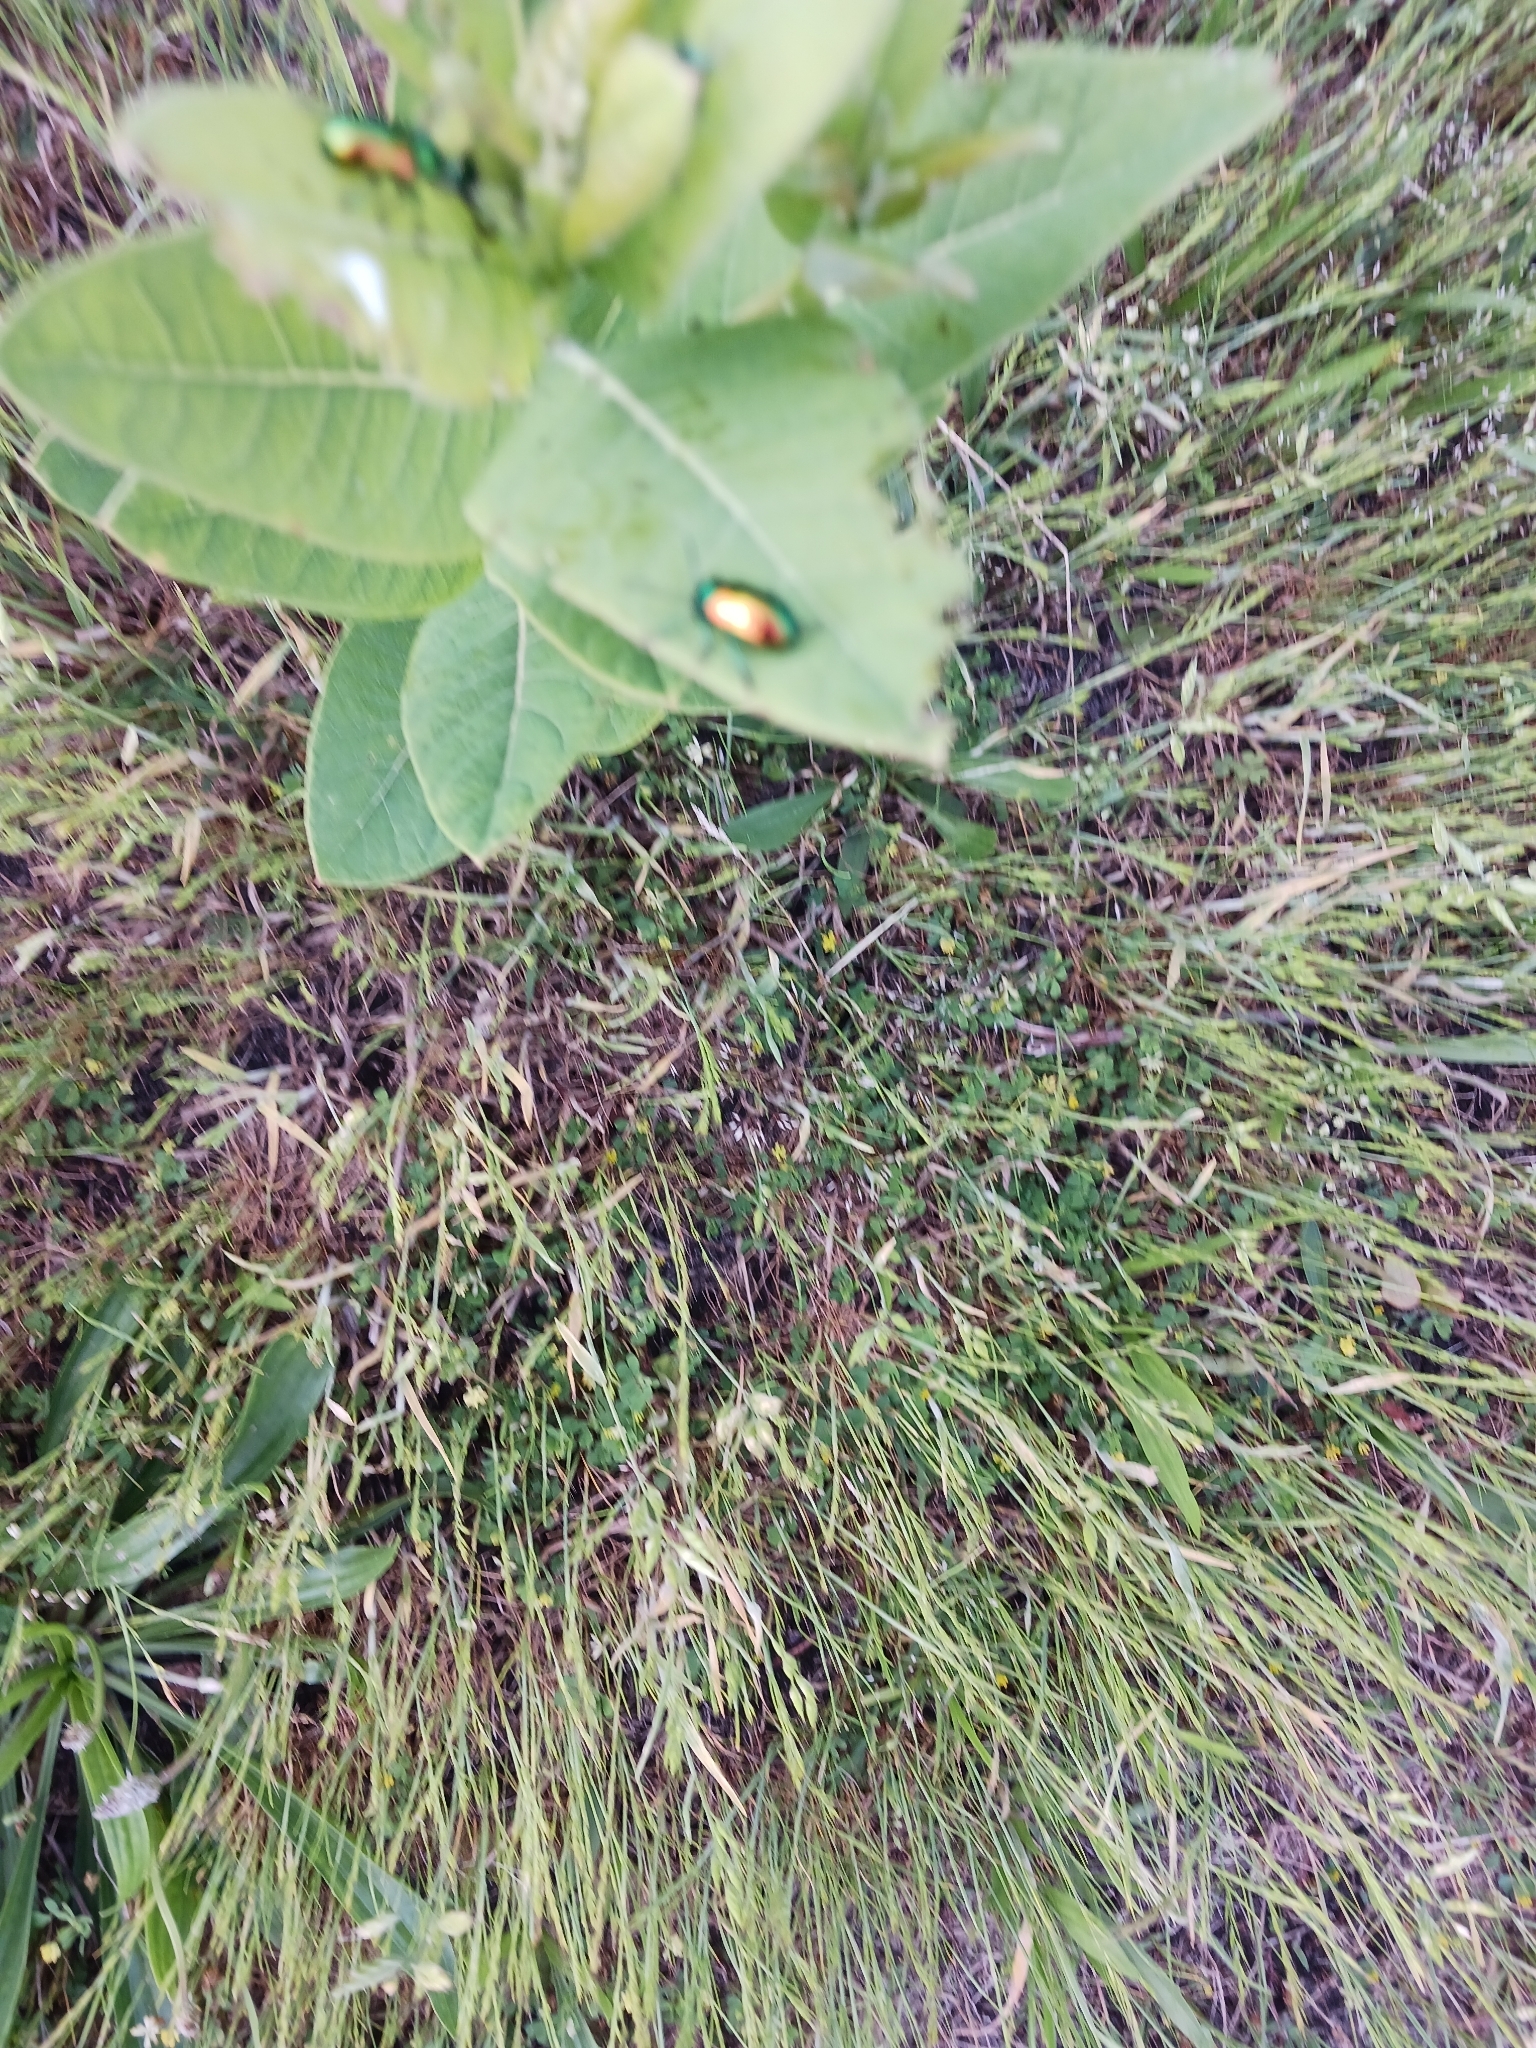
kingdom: Animalia
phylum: Arthropoda
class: Insecta
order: Coleoptera
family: Chrysomelidae
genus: Chrysochus
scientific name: Chrysochus auratus
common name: Dogbane leaf beetle
